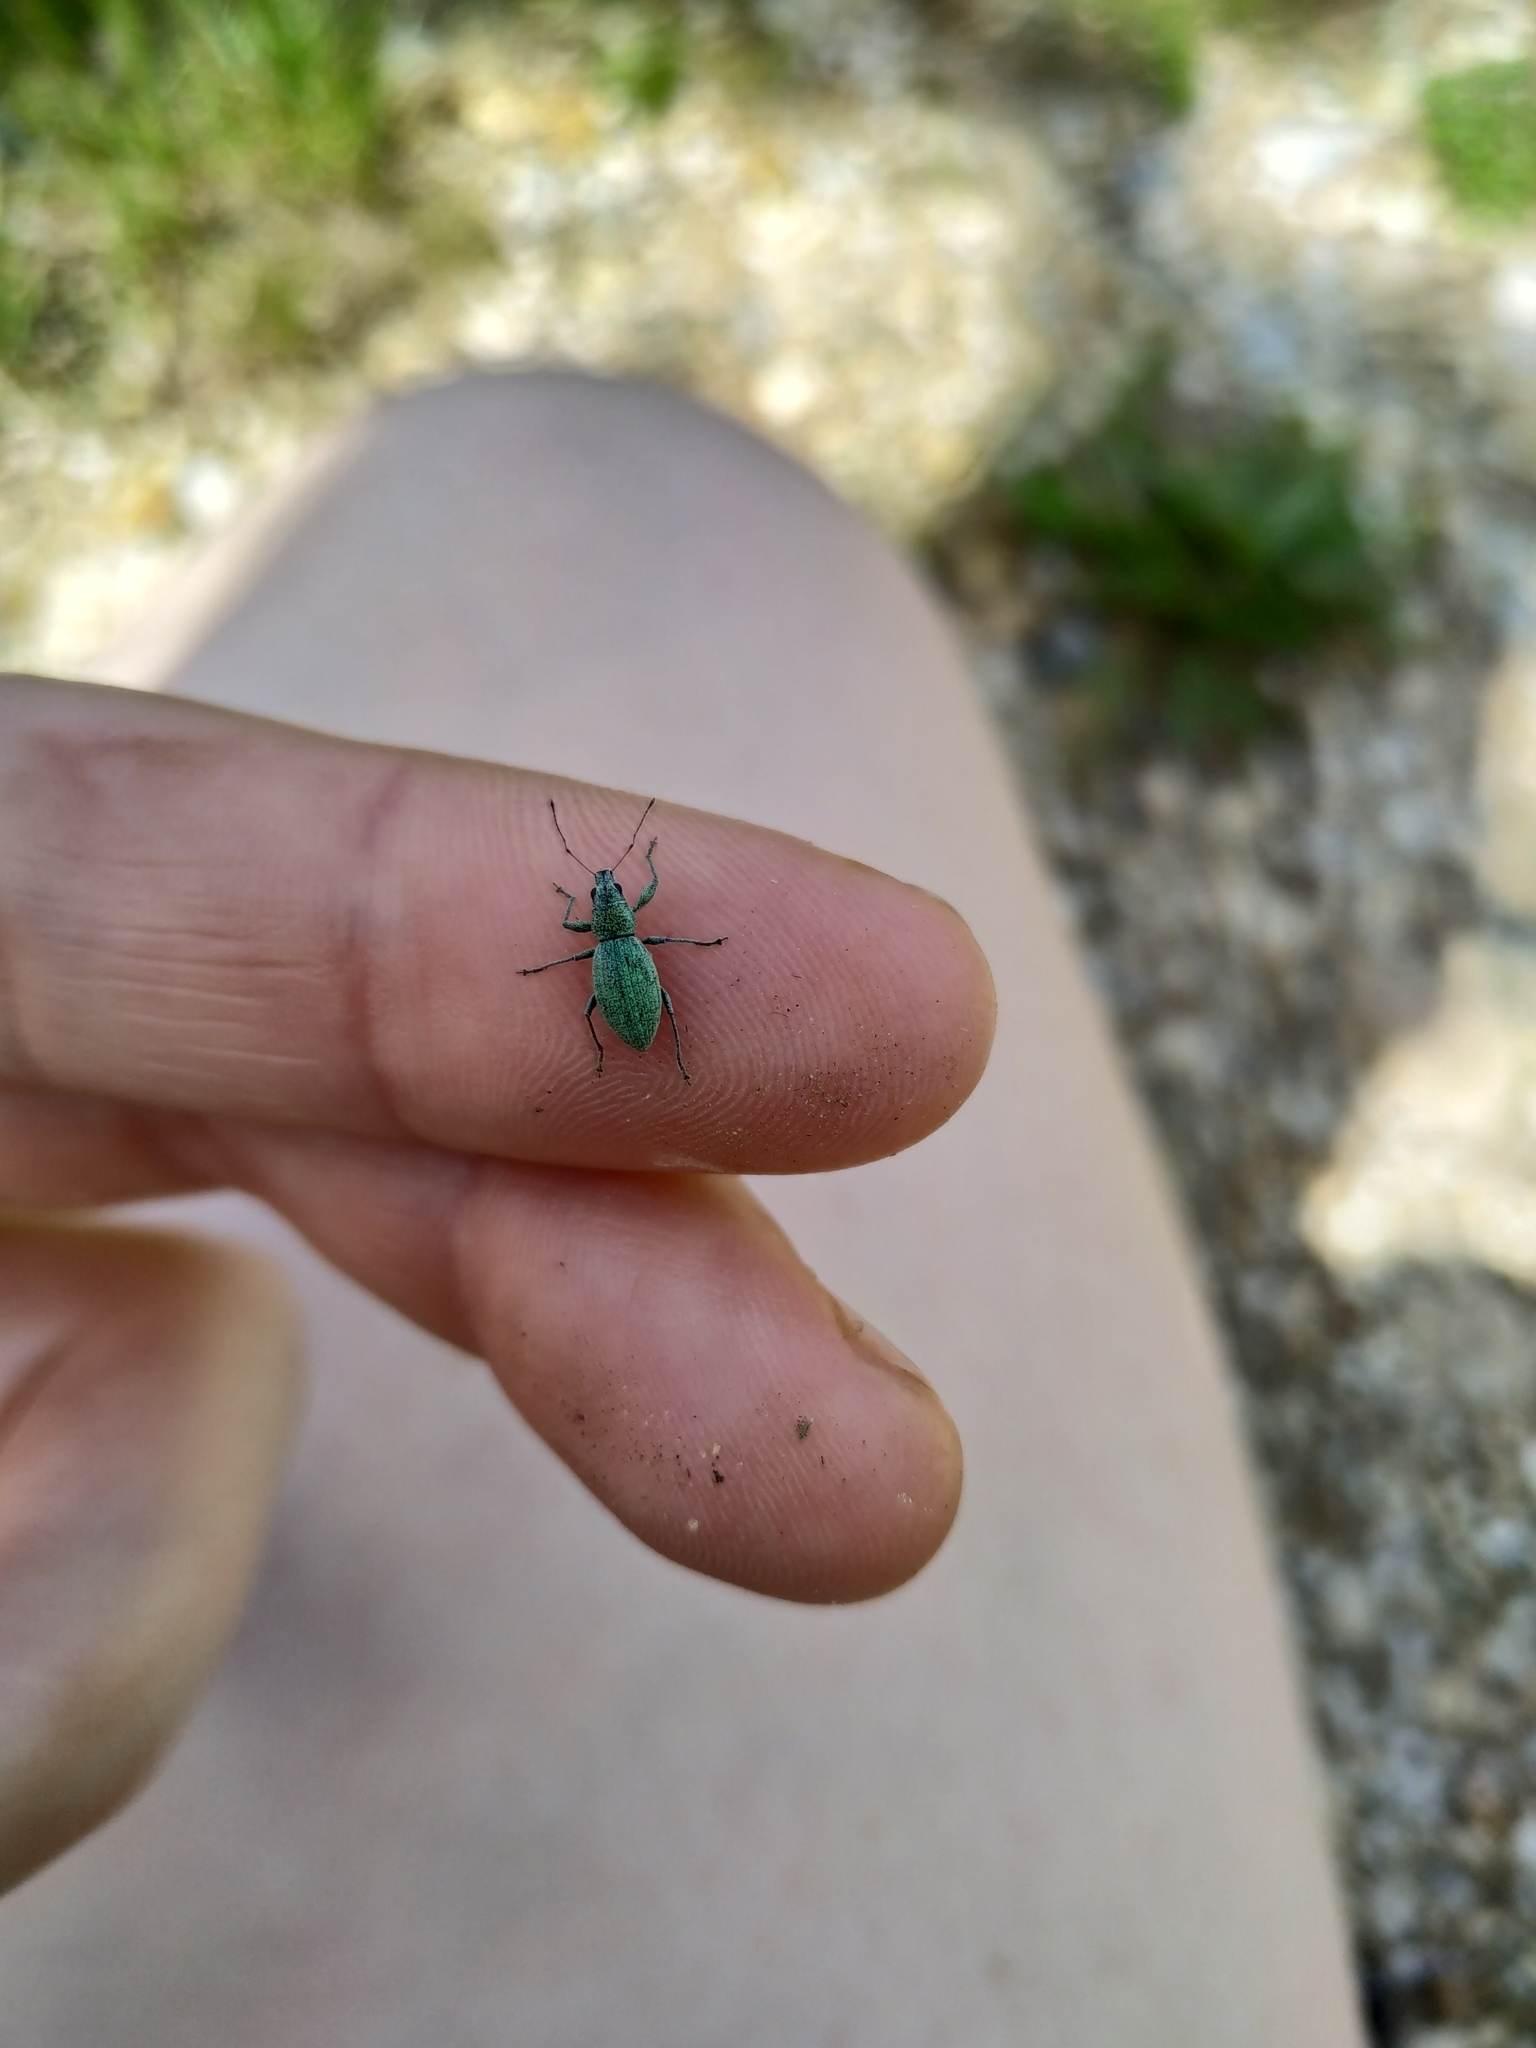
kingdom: Animalia
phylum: Arthropoda
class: Insecta
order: Coleoptera
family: Curculionidae
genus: Eusomus
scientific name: Eusomus ovulum
